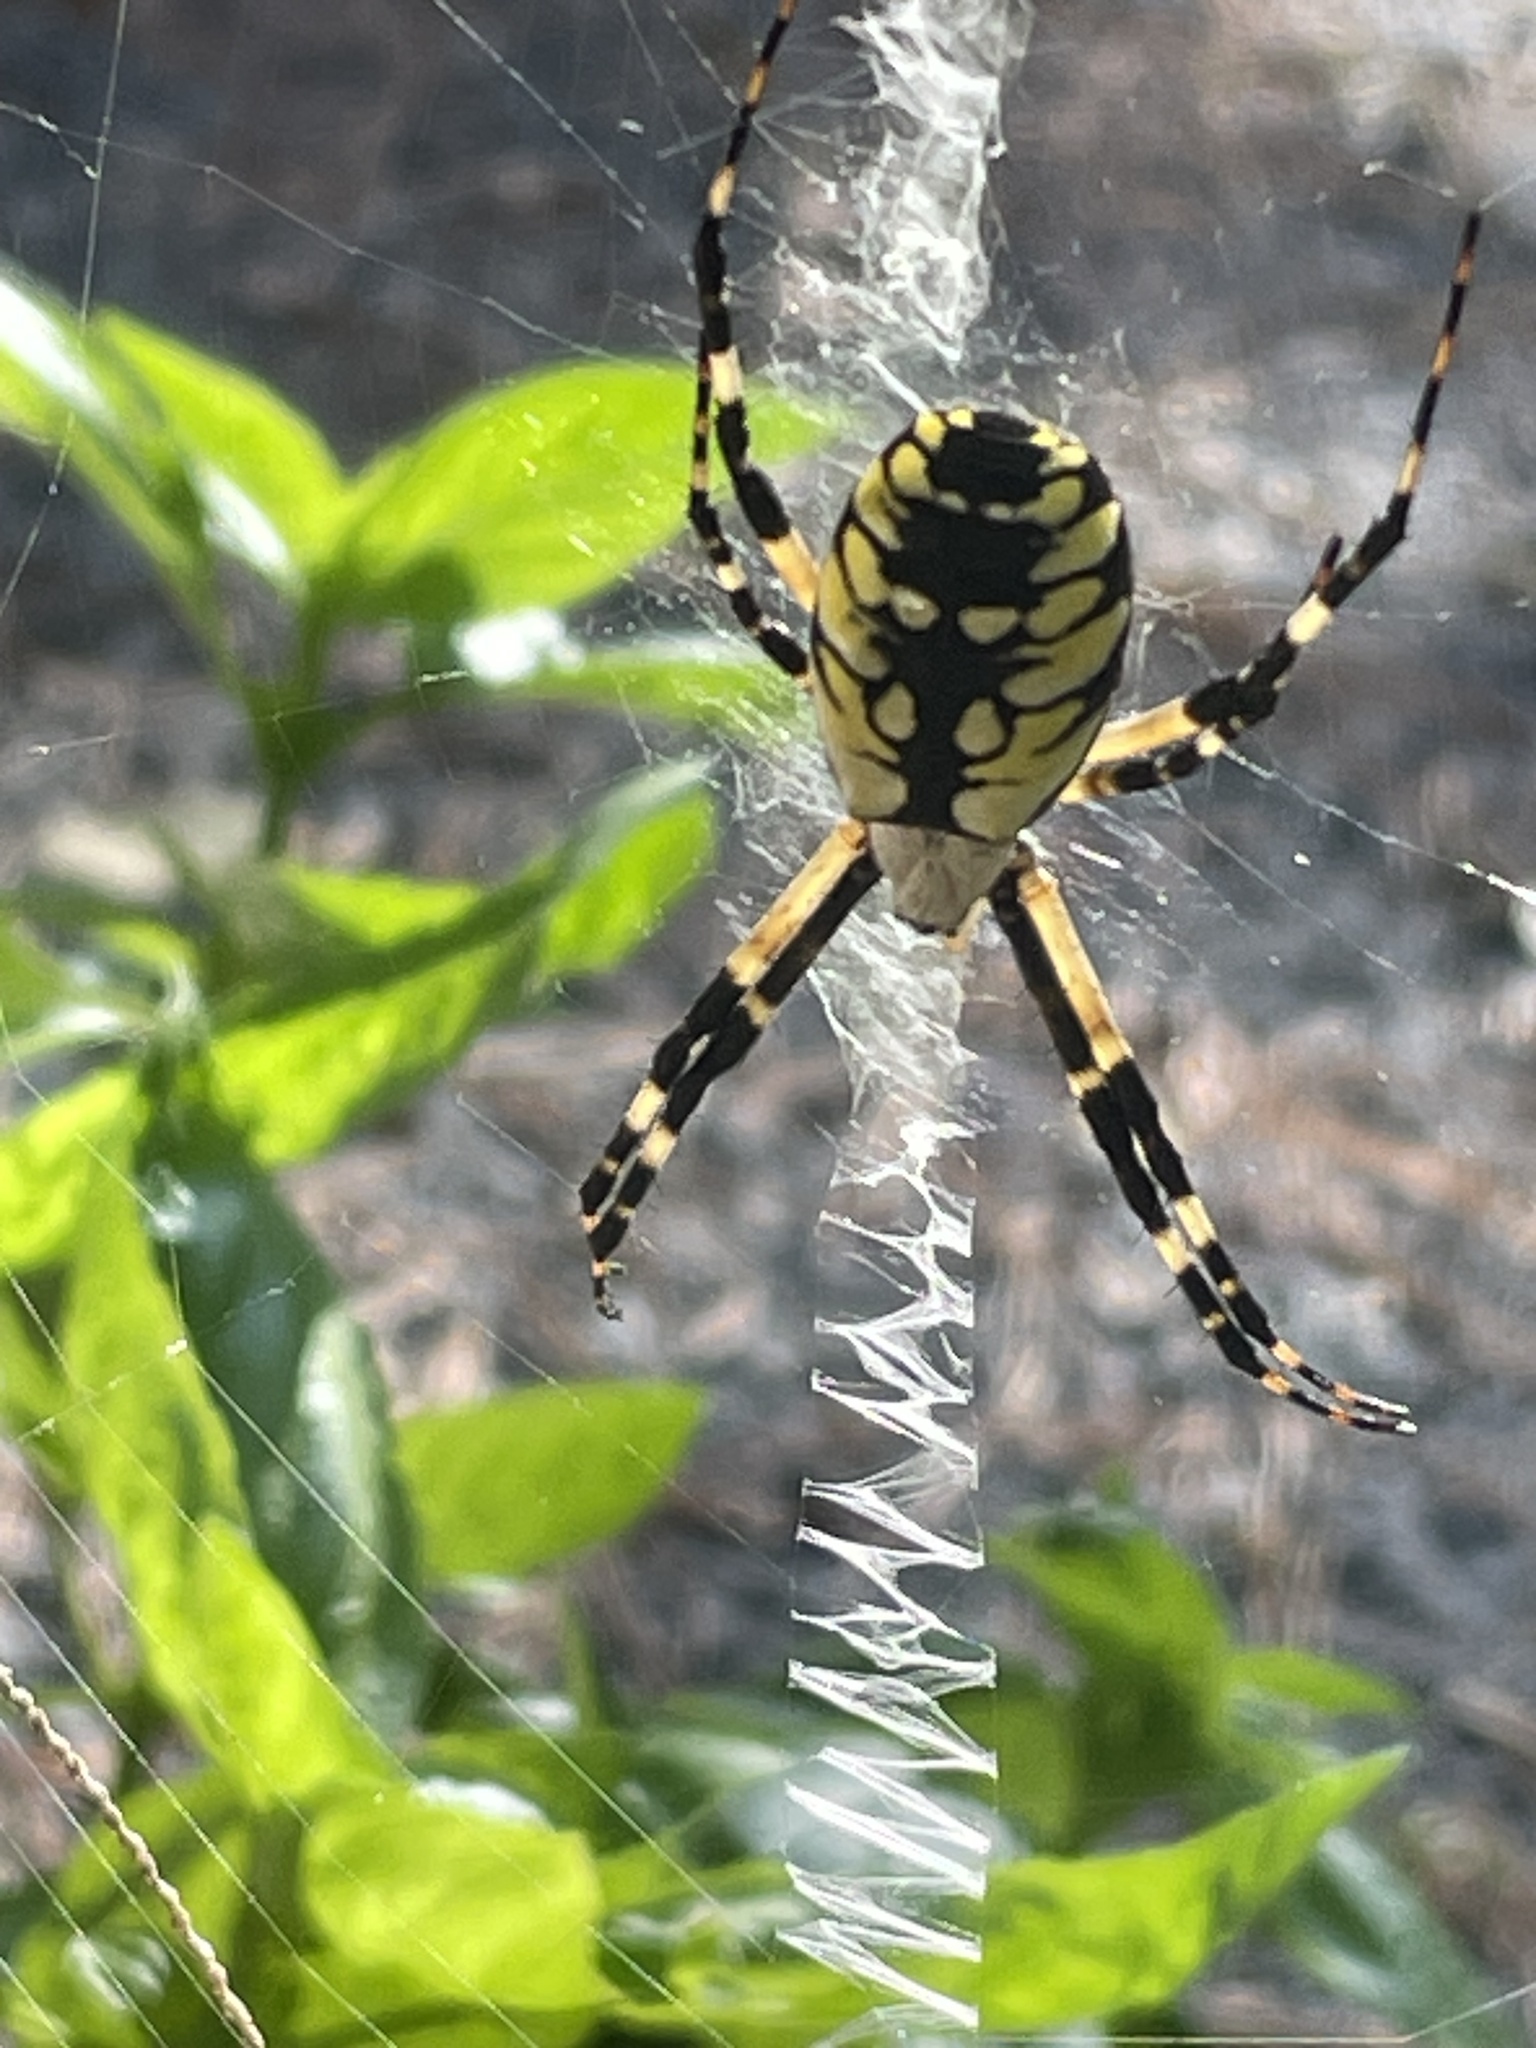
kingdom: Animalia
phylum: Arthropoda
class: Arachnida
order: Araneae
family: Araneidae
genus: Argiope
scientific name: Argiope aurantia
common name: Orb weavers
